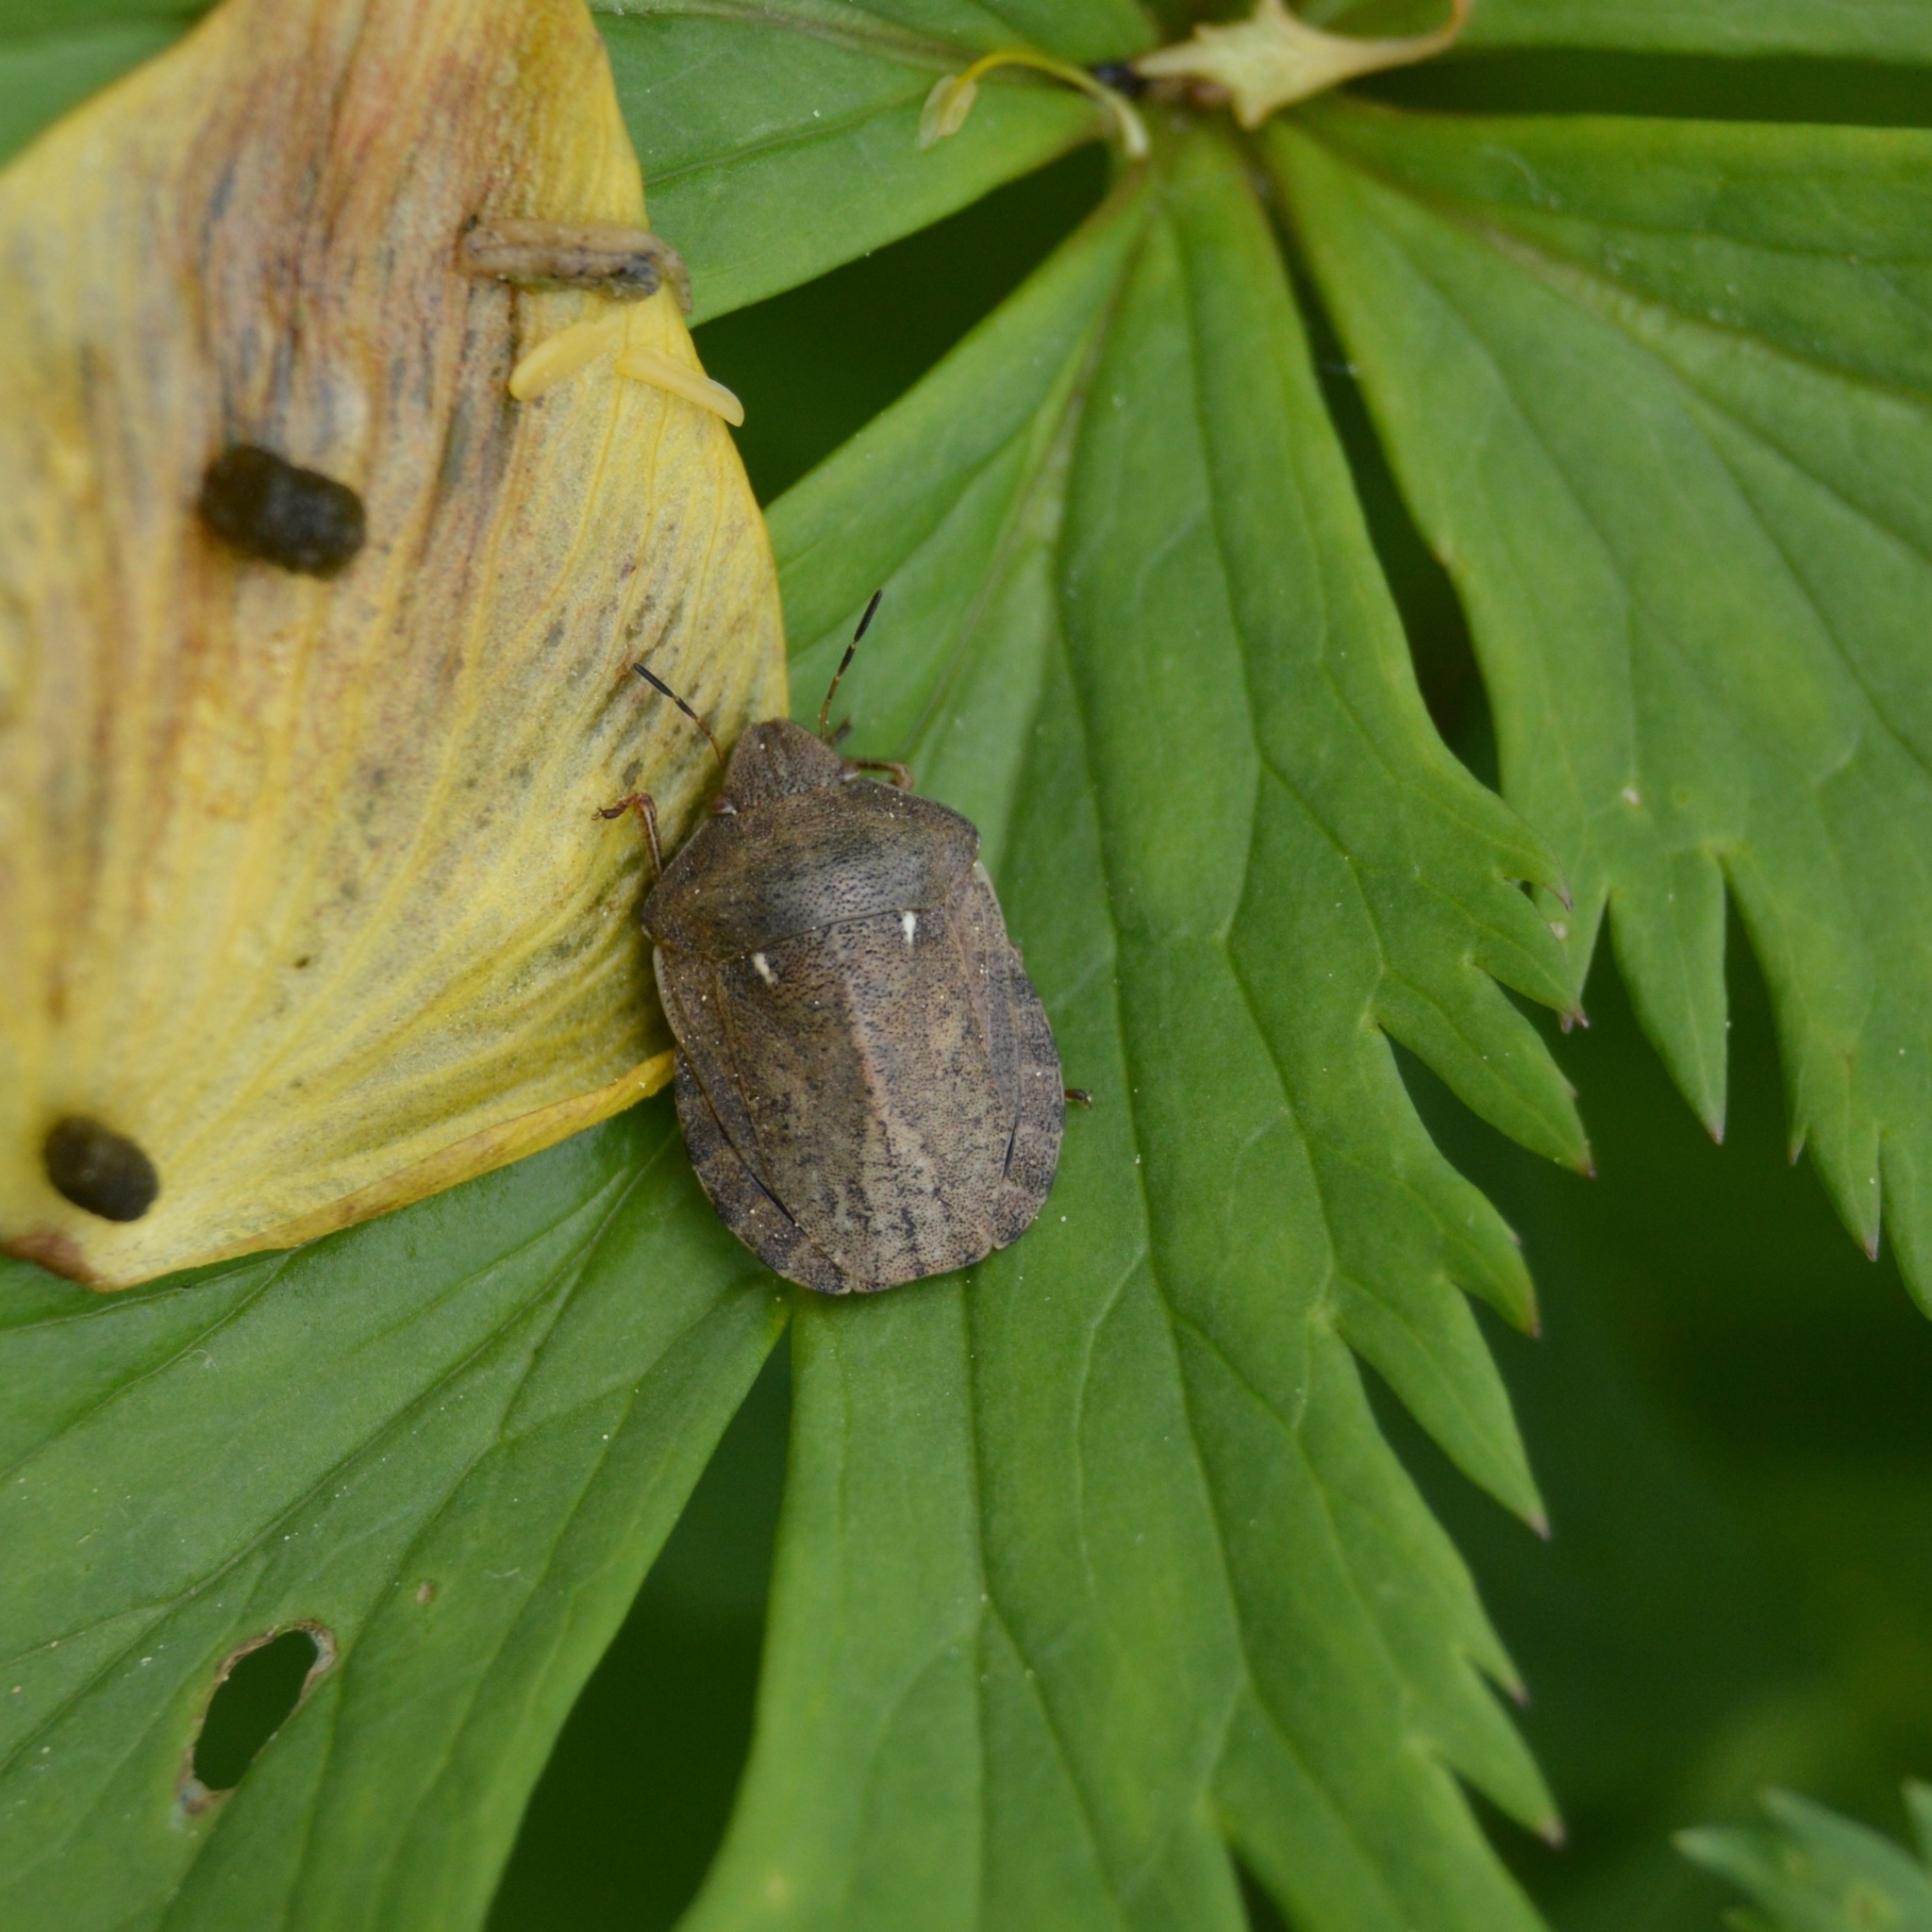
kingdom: Animalia
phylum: Arthropoda
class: Insecta
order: Hemiptera
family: Scutelleridae
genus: Eurygaster
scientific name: Eurygaster testudinaria
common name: Tortoise bug
